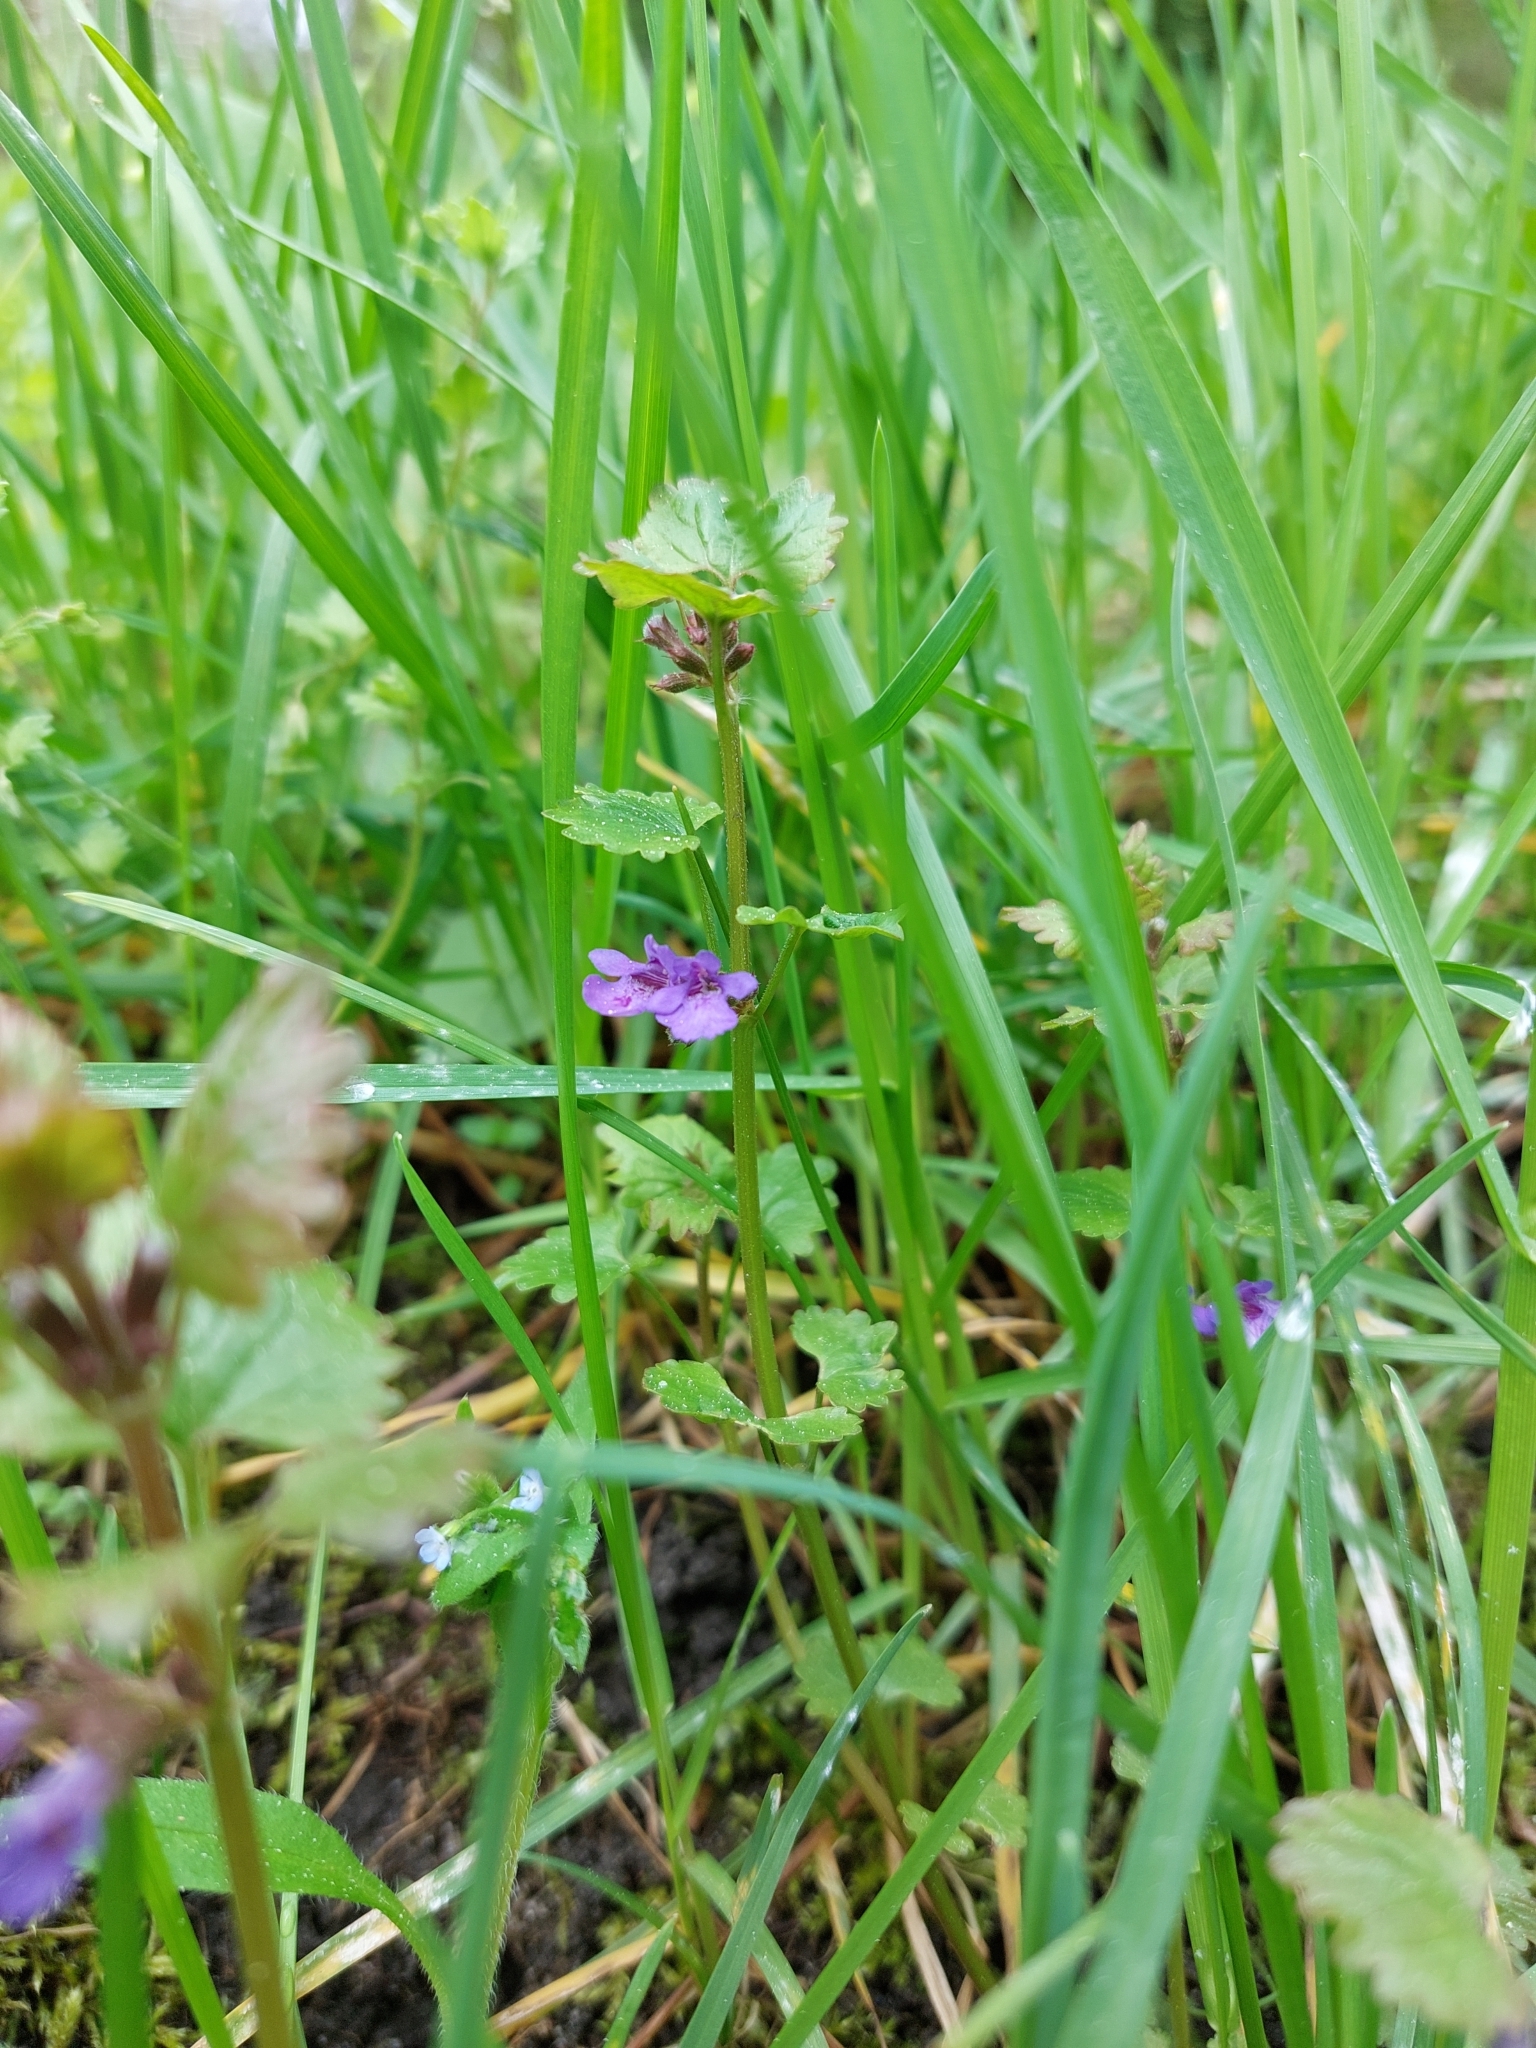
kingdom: Plantae
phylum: Tracheophyta
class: Magnoliopsida
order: Lamiales
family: Lamiaceae
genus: Glechoma
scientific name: Glechoma hederacea
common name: Ground ivy
